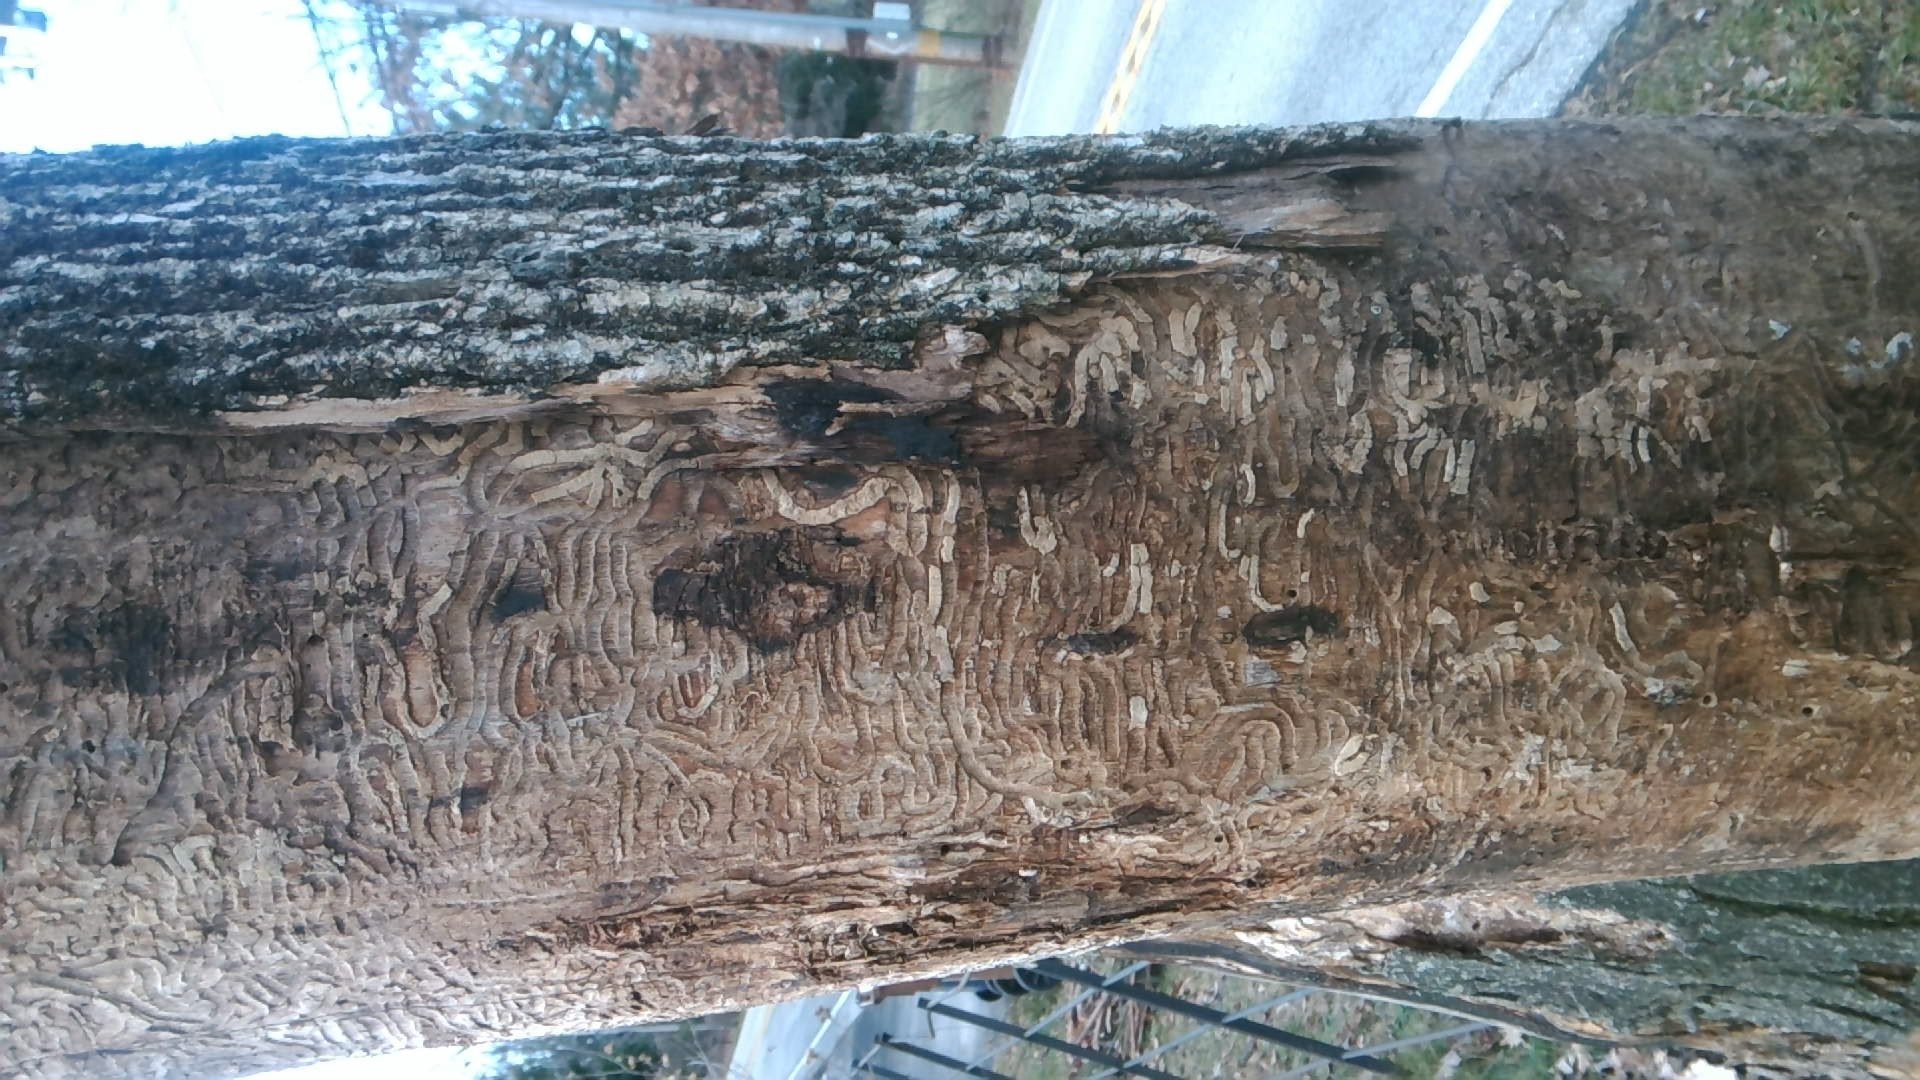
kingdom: Animalia
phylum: Arthropoda
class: Insecta
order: Coleoptera
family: Buprestidae
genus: Agrilus
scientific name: Agrilus planipennis
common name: Emerald ash borer
